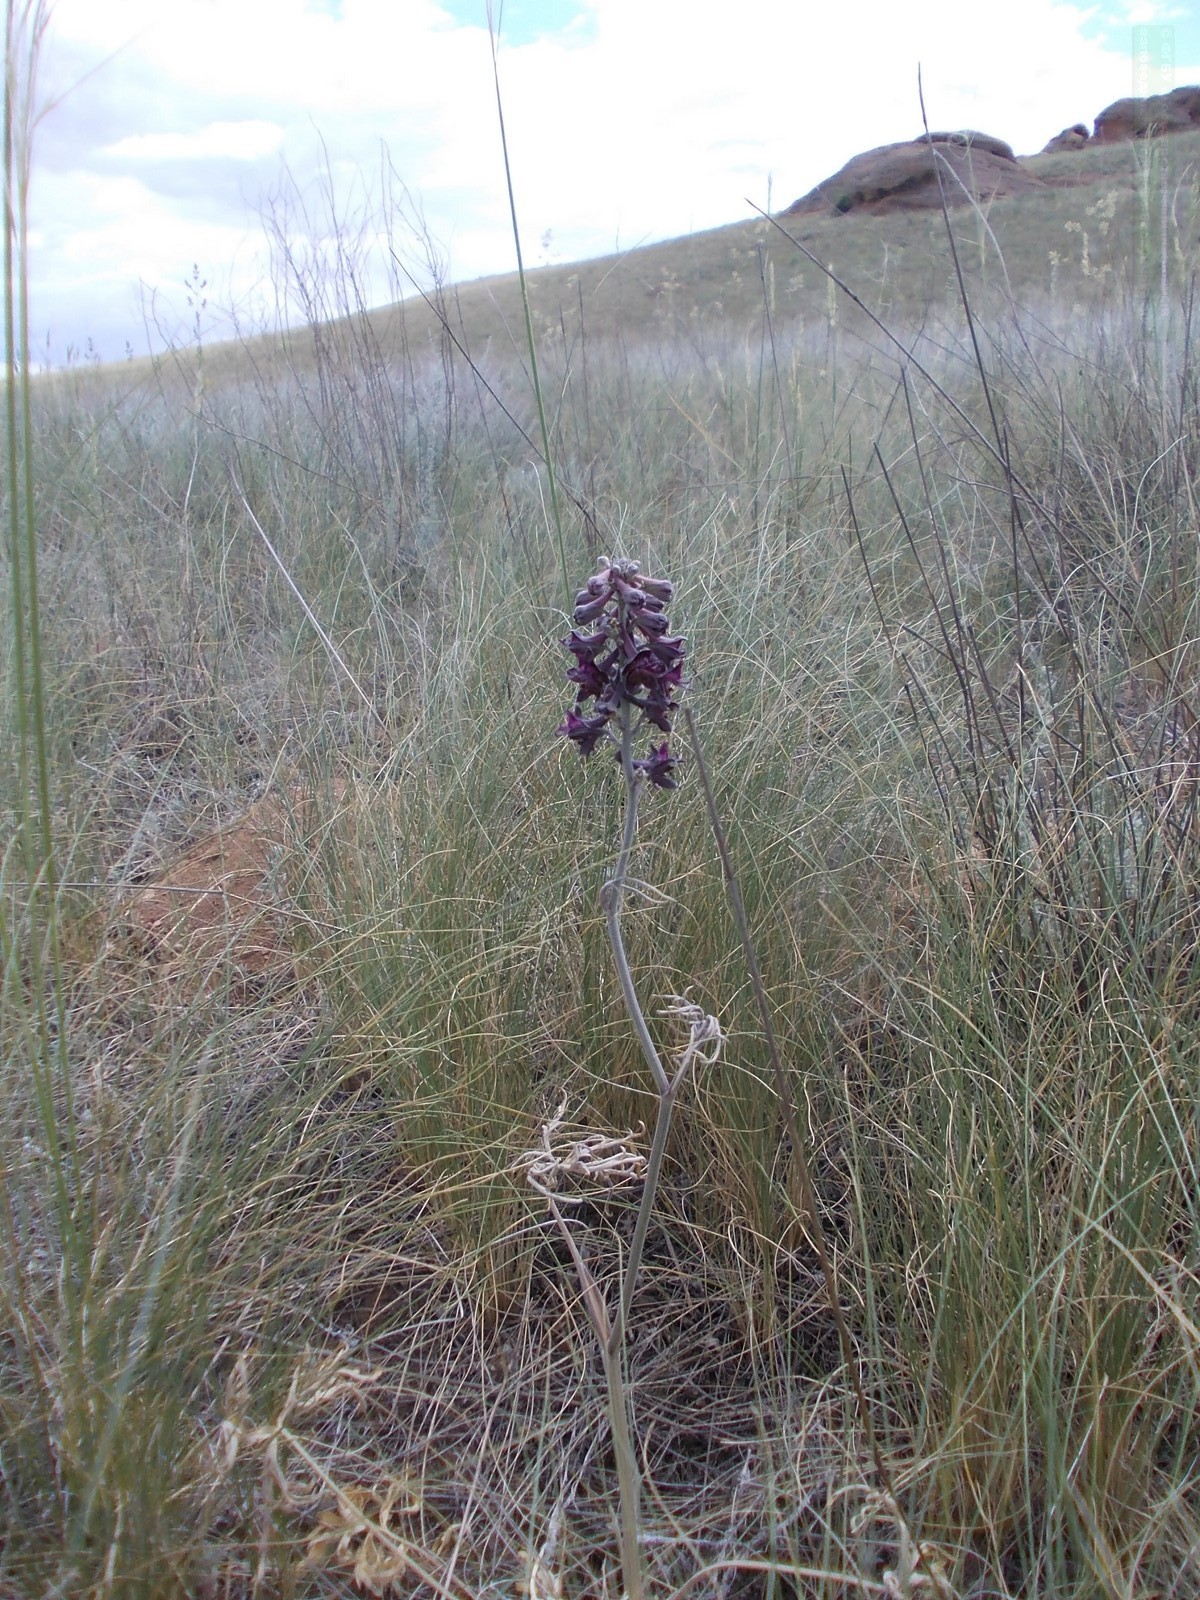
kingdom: Plantae
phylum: Tracheophyta
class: Magnoliopsida
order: Ranunculales
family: Ranunculaceae
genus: Delphinium
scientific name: Delphinium puniceum
